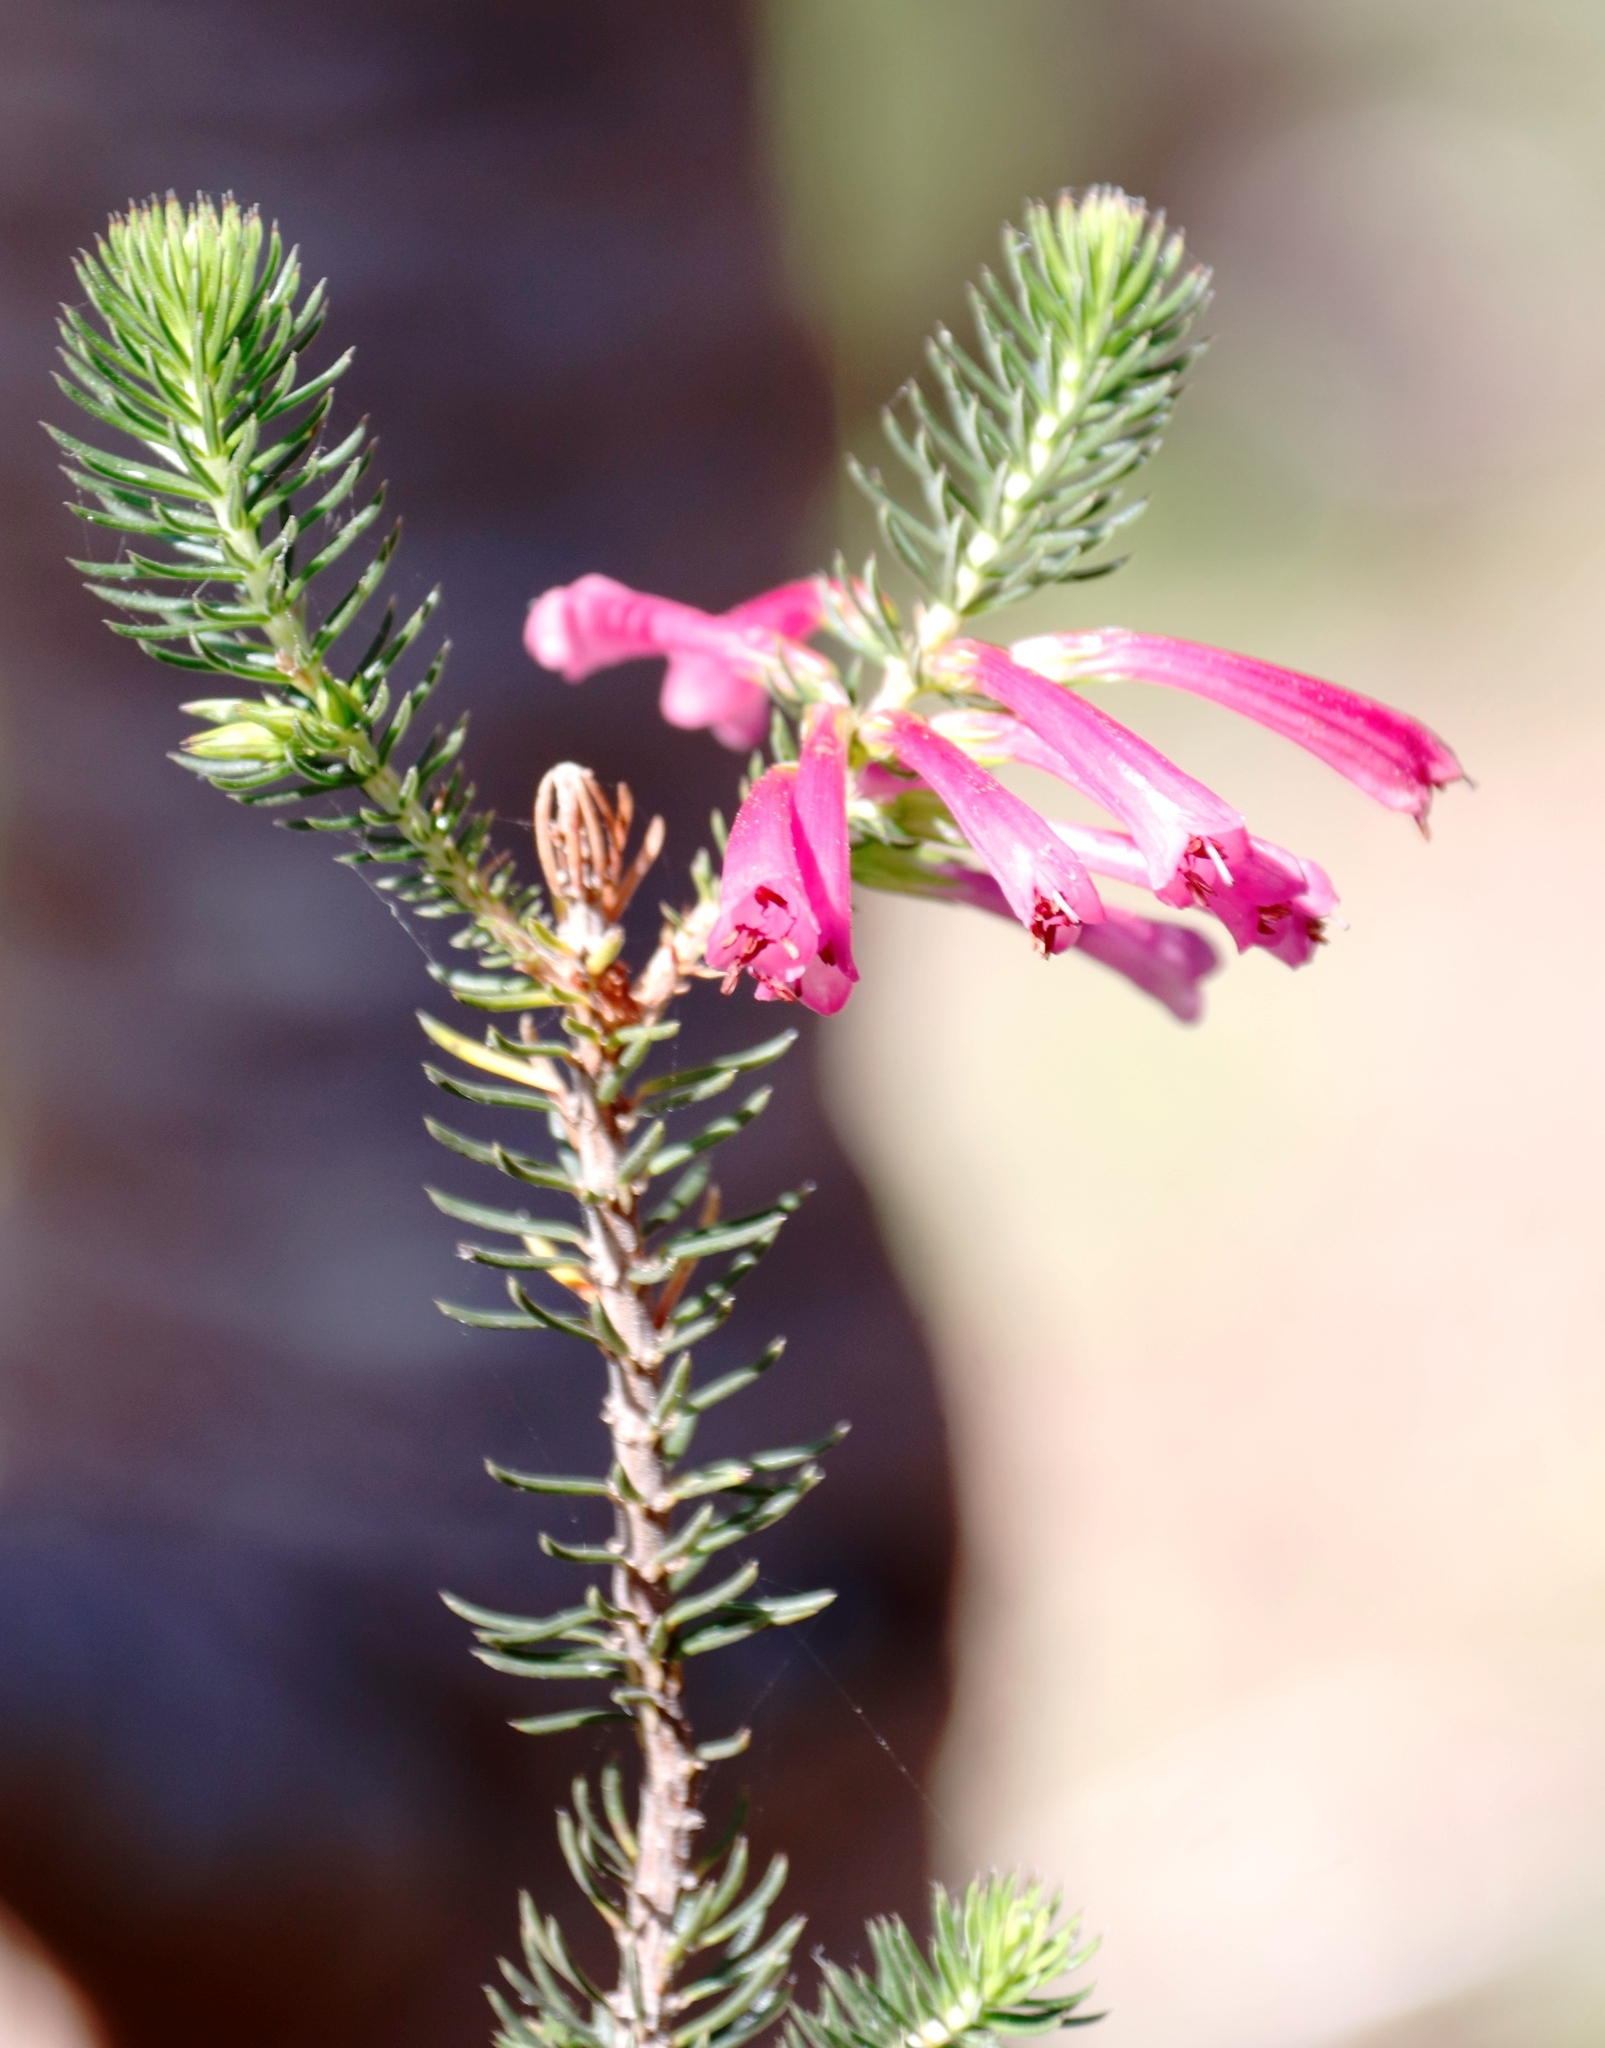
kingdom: Plantae
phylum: Tracheophyta
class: Magnoliopsida
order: Ericales
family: Ericaceae
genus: Erica
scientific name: Erica abietina
